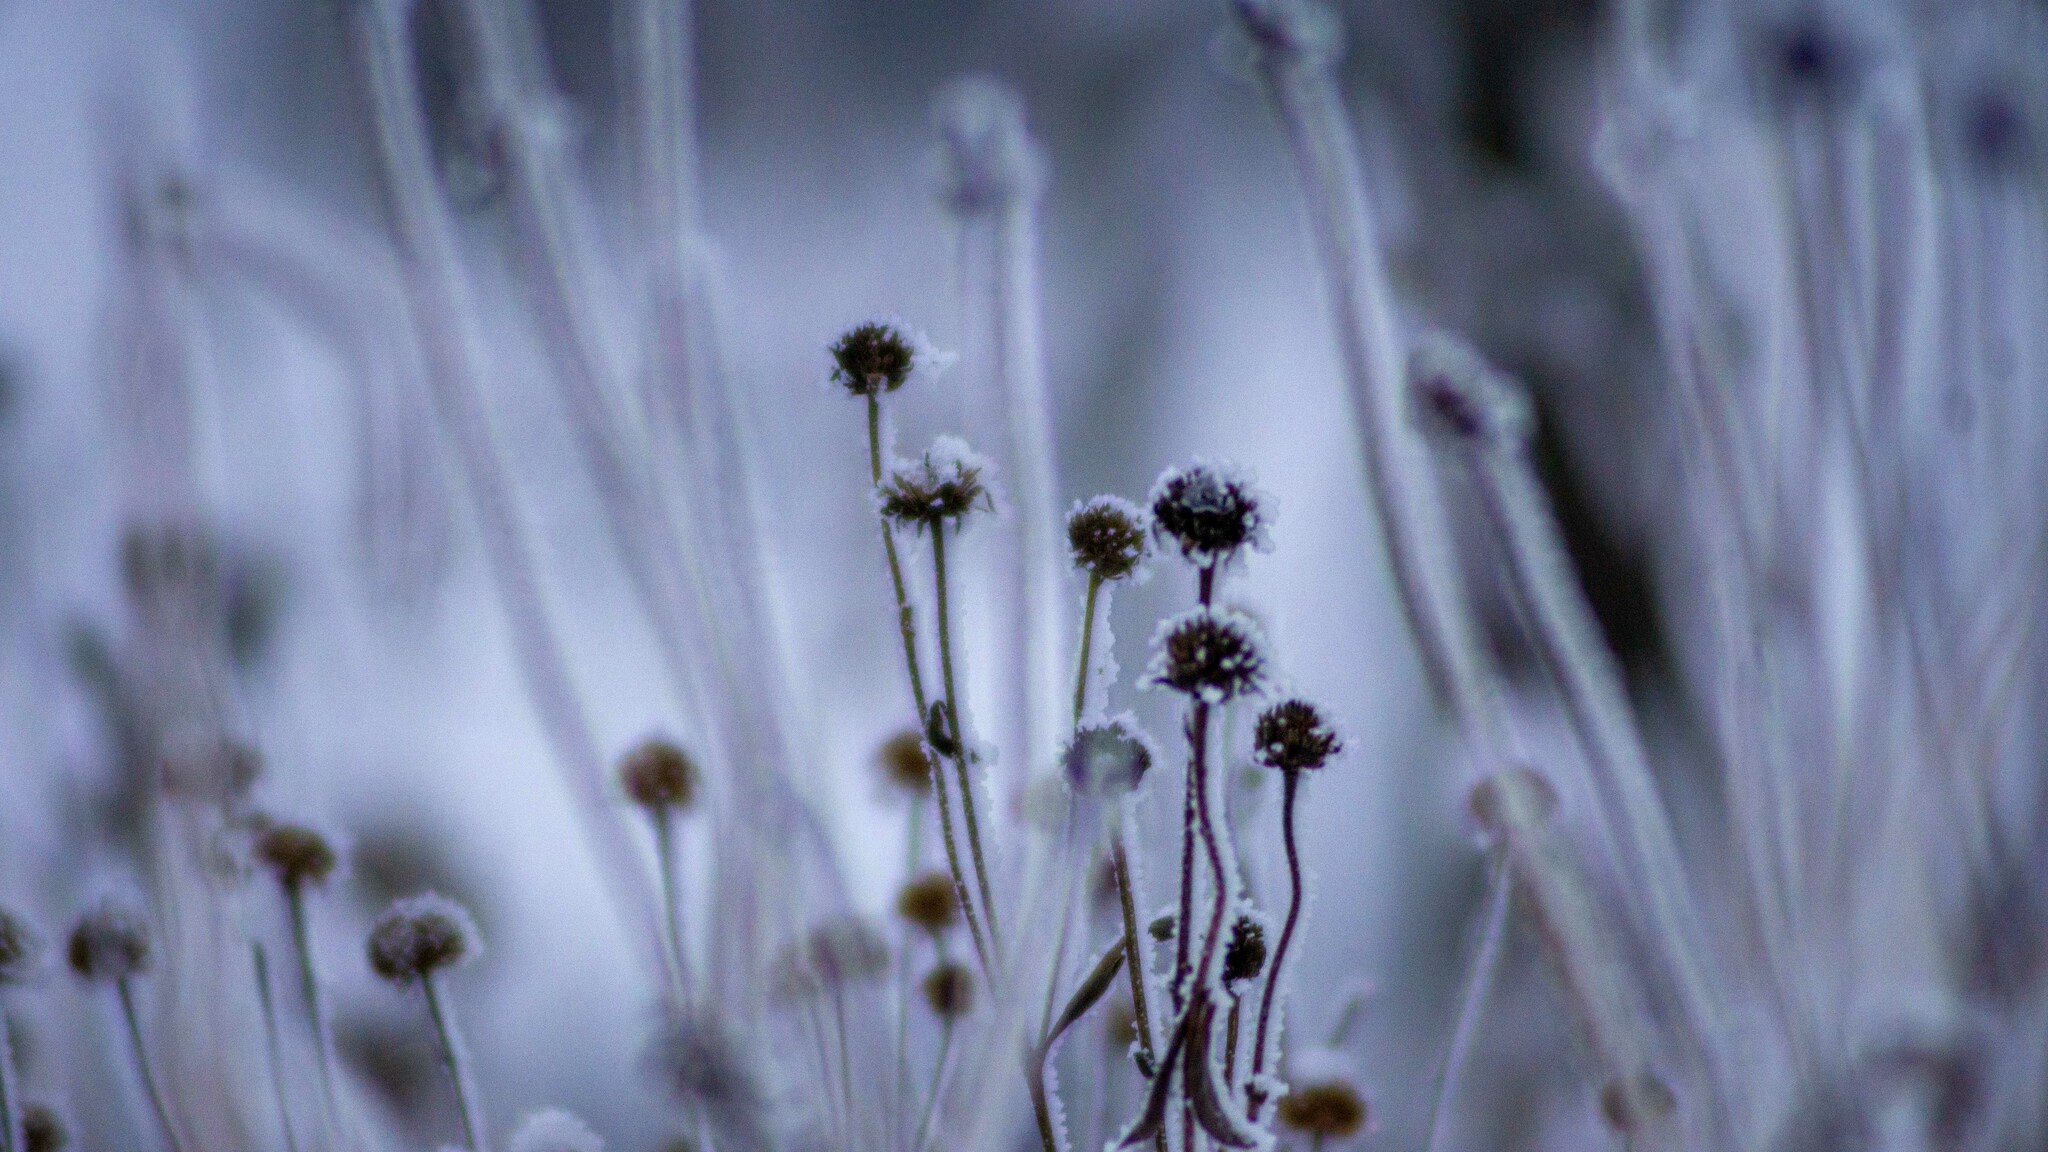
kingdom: Plantae
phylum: Tracheophyta
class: Magnoliopsida
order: Asterales
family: Asteraceae
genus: Echinacea
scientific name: Echinacea pallida
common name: Pale echinacea
